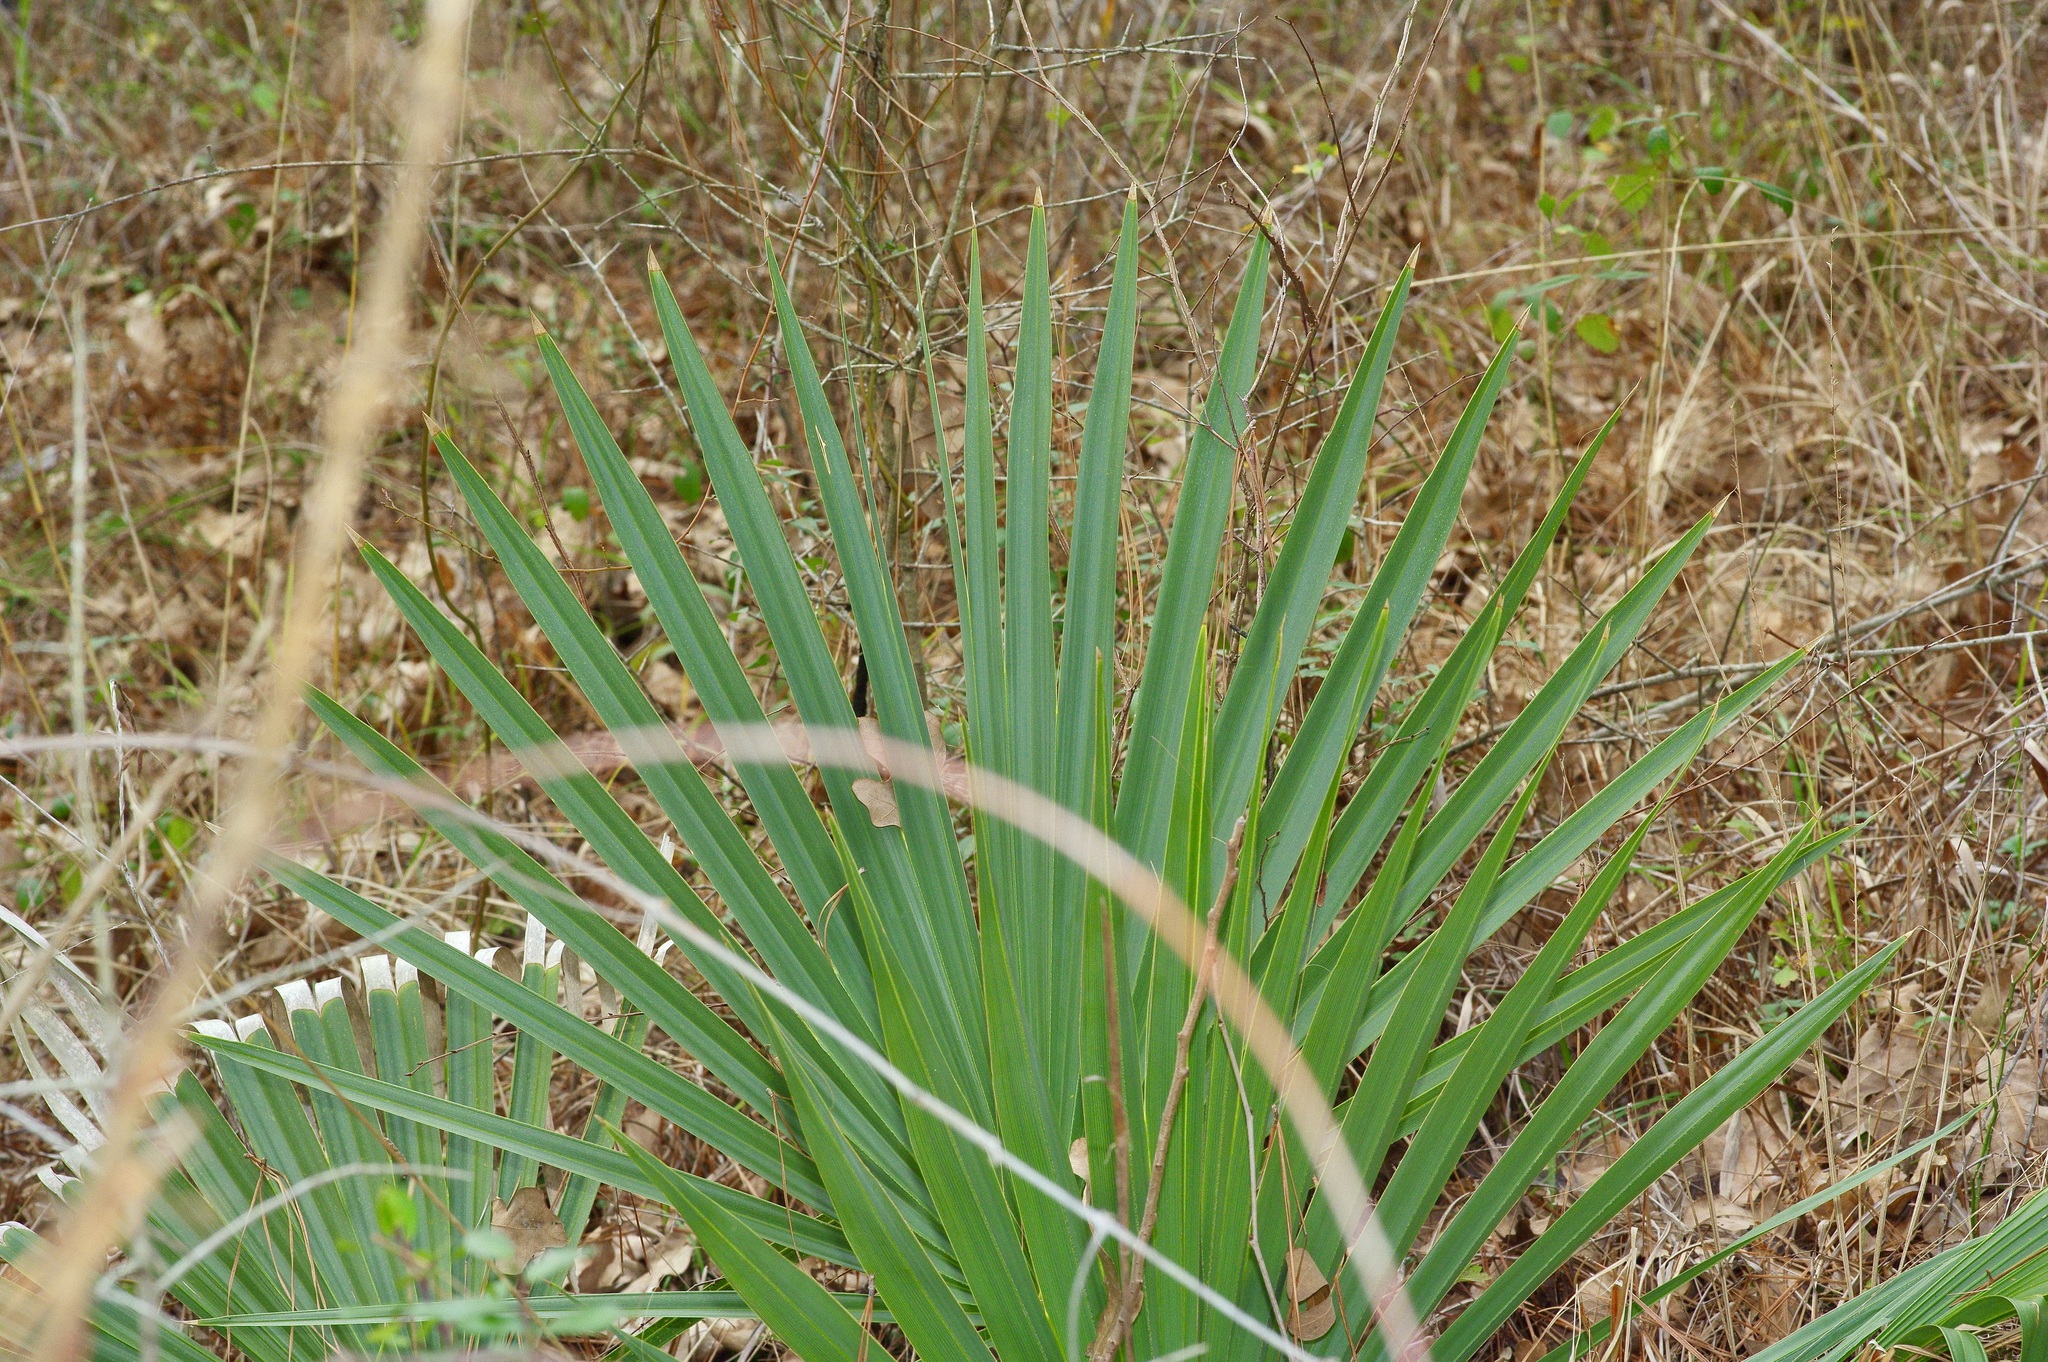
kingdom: Plantae
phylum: Tracheophyta
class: Liliopsida
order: Arecales
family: Arecaceae
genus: Sabal
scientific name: Sabal minor
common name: Dwarf palmetto
